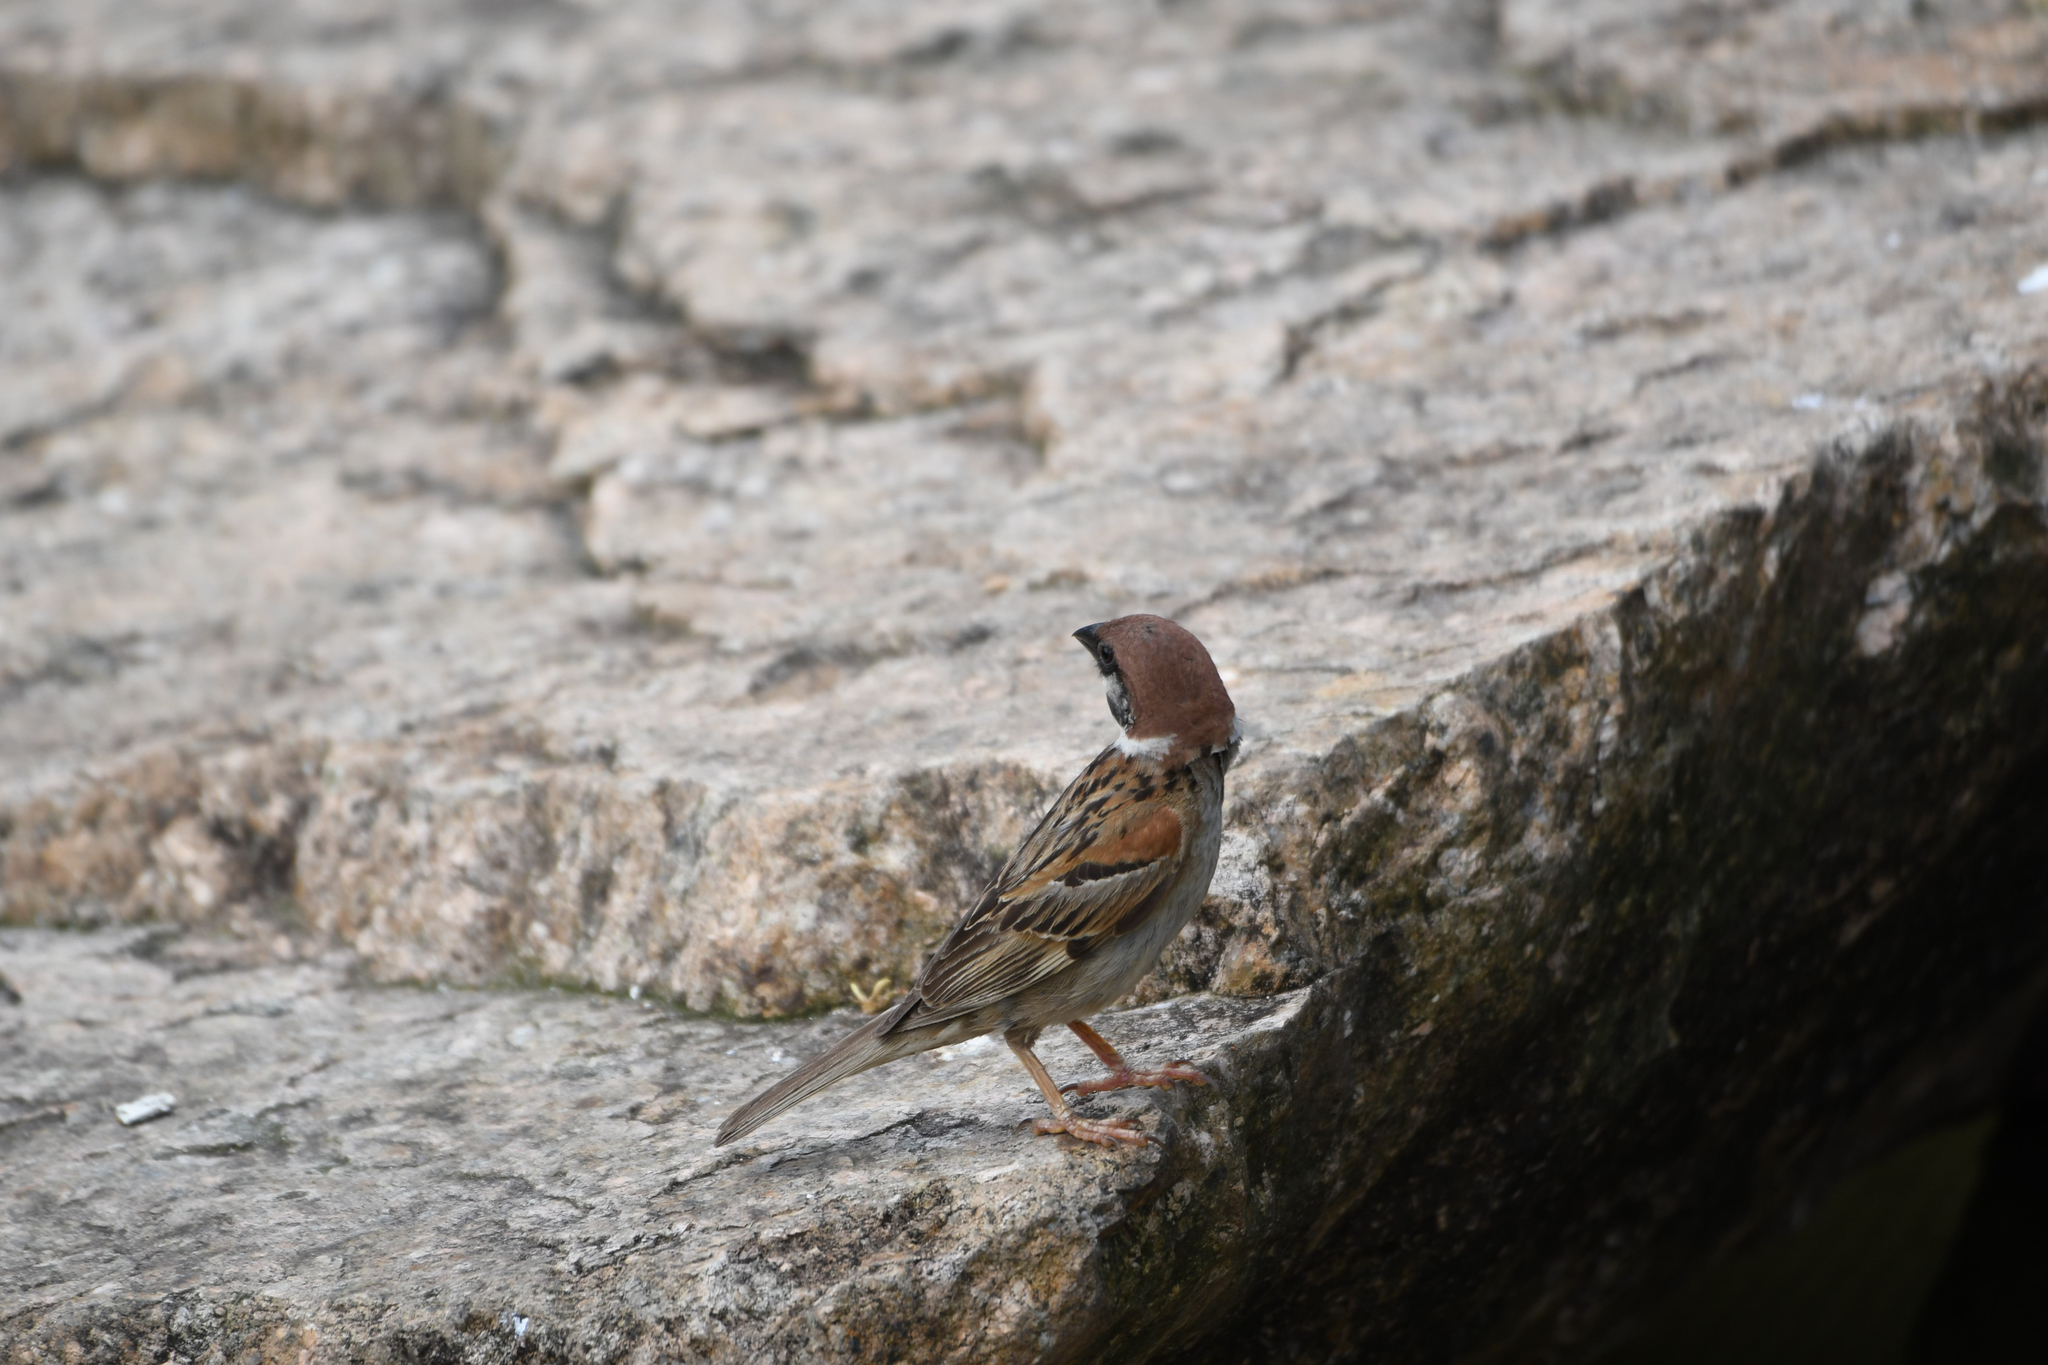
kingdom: Animalia
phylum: Chordata
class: Aves
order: Passeriformes
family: Passeridae
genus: Passer
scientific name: Passer montanus
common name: Eurasian tree sparrow
